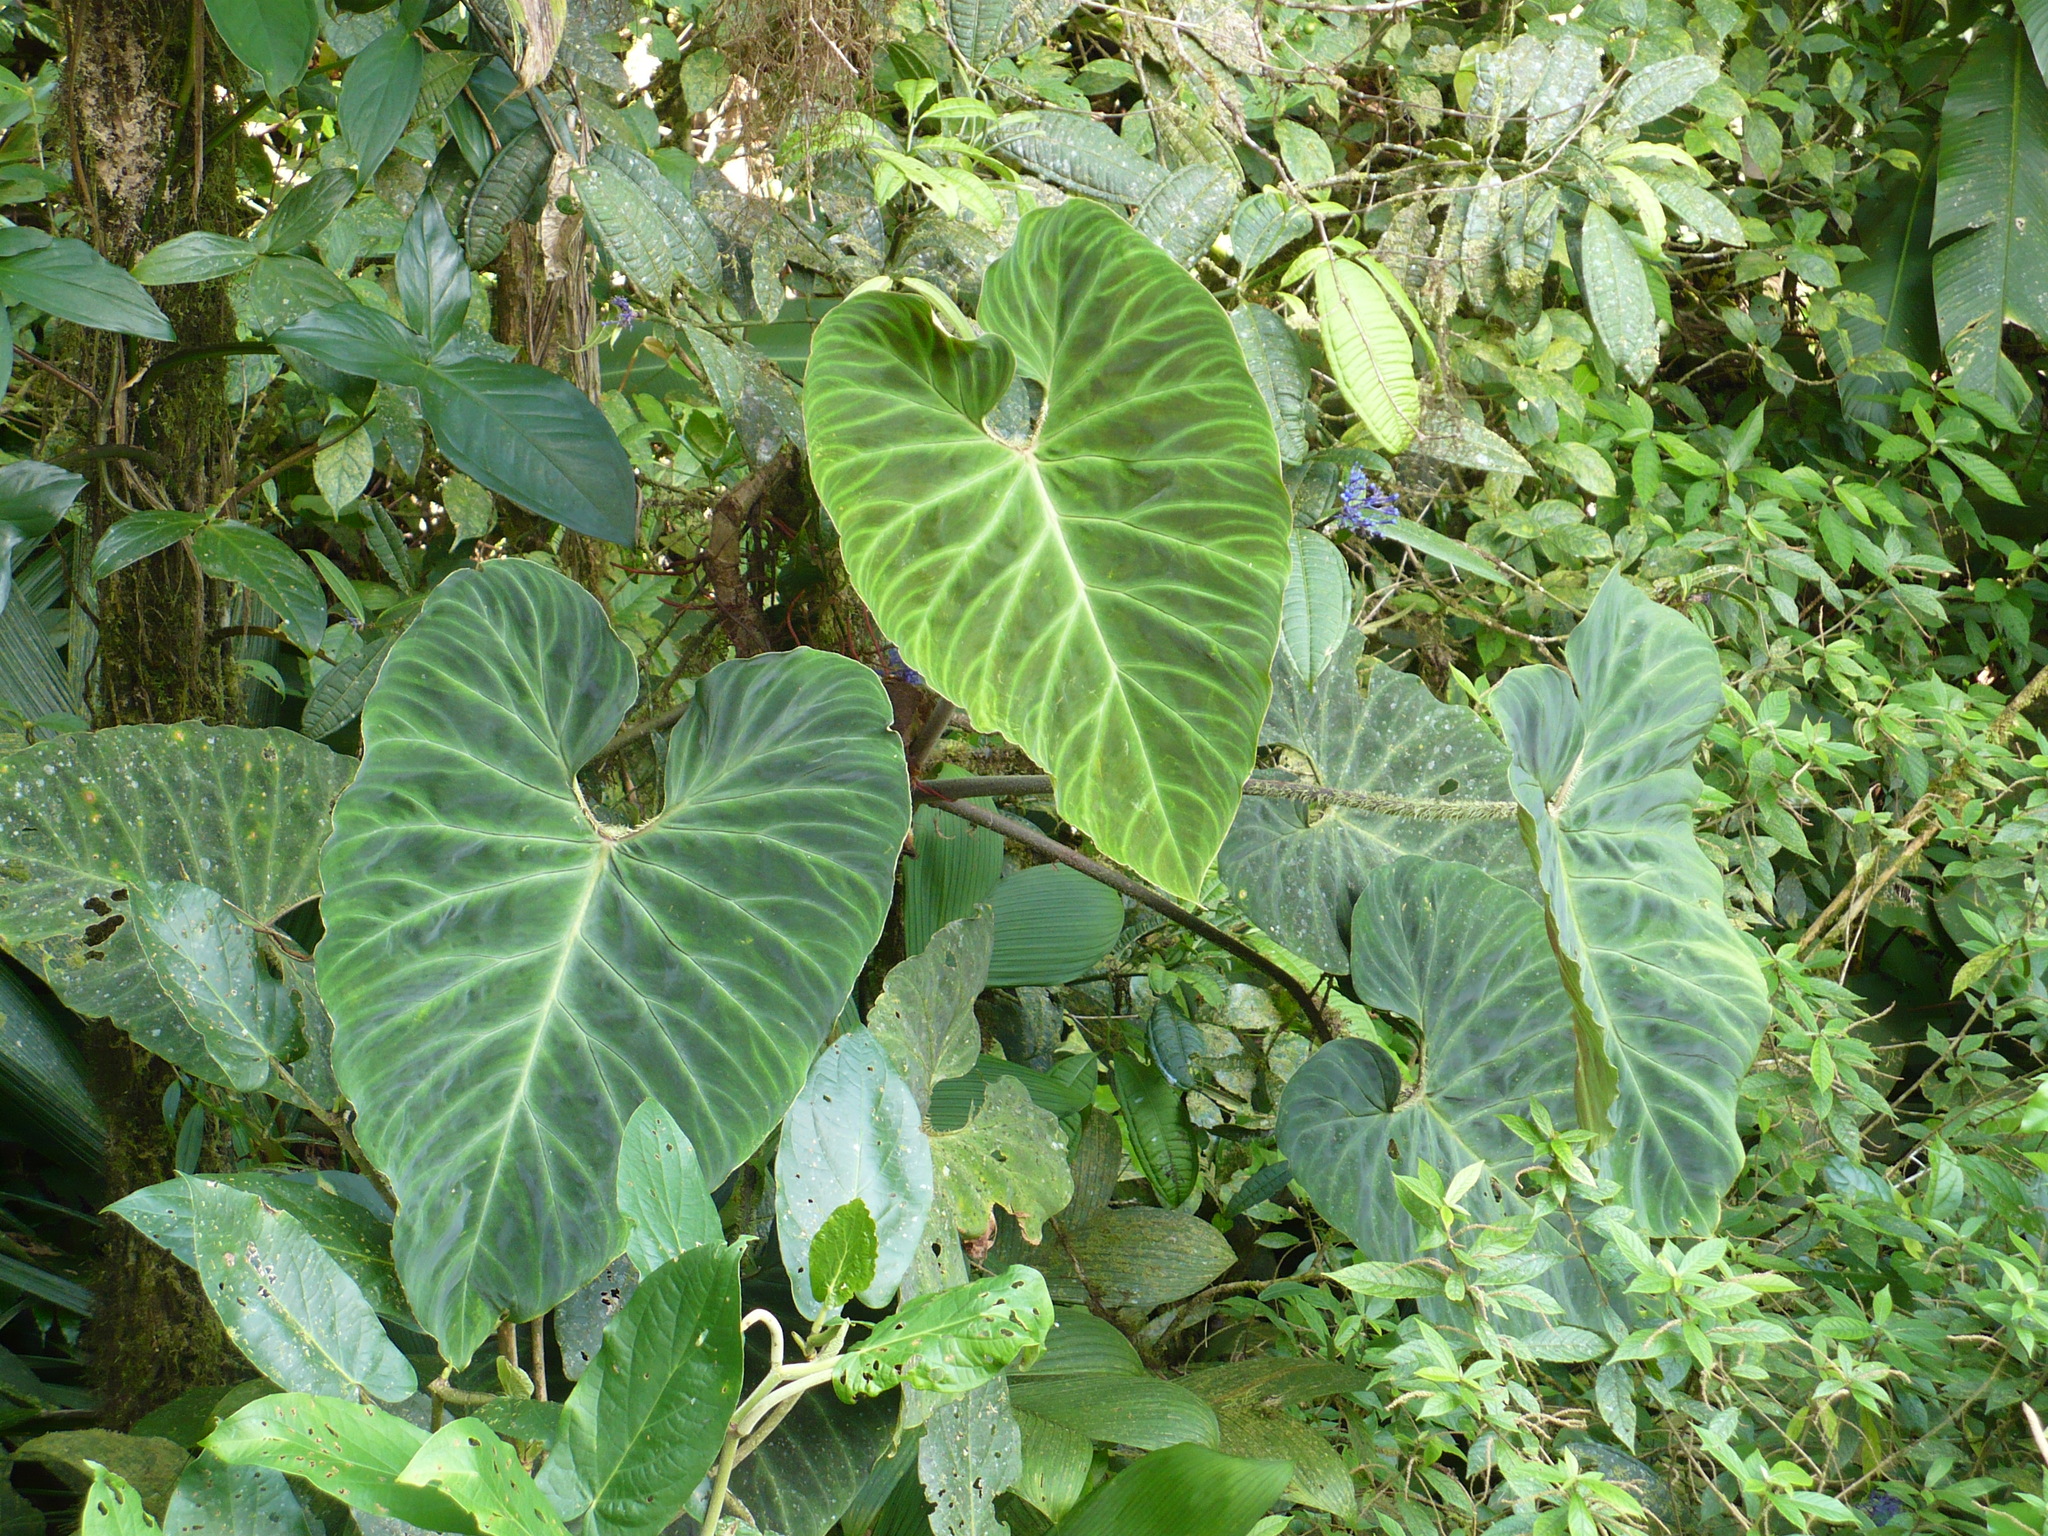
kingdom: Plantae
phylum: Tracheophyta
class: Liliopsida
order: Alismatales
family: Araceae
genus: Philodendron
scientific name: Philodendron verrucosum
